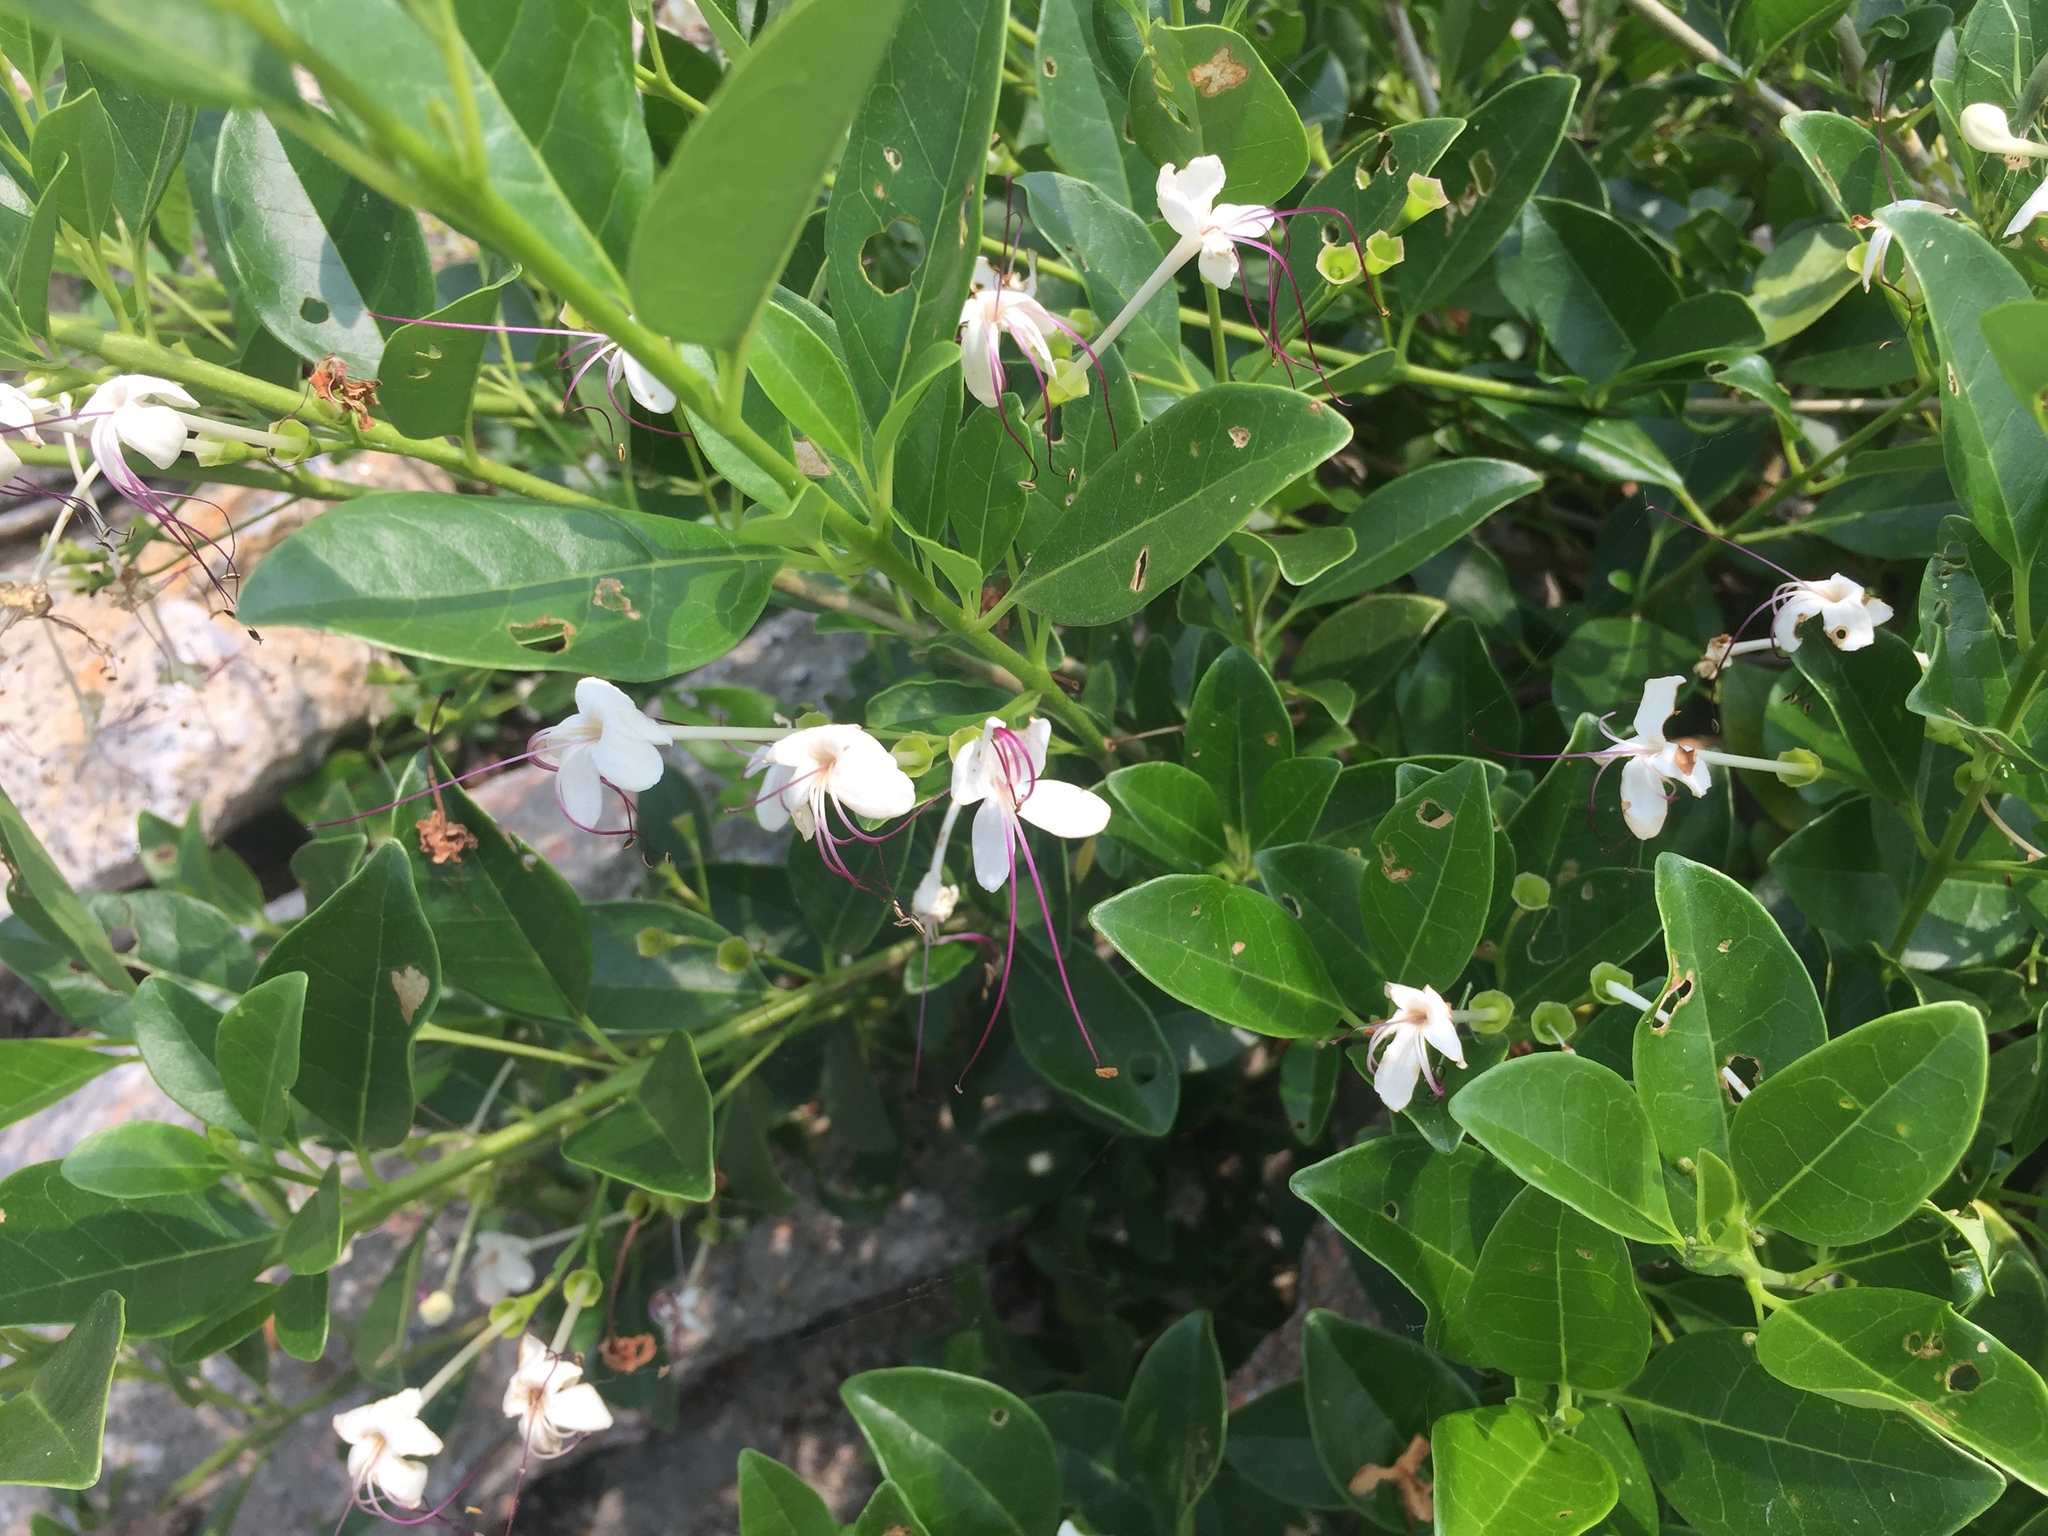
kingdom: Plantae
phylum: Tracheophyta
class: Magnoliopsida
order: Lamiales
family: Lamiaceae
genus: Volkameria
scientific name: Volkameria inermis
